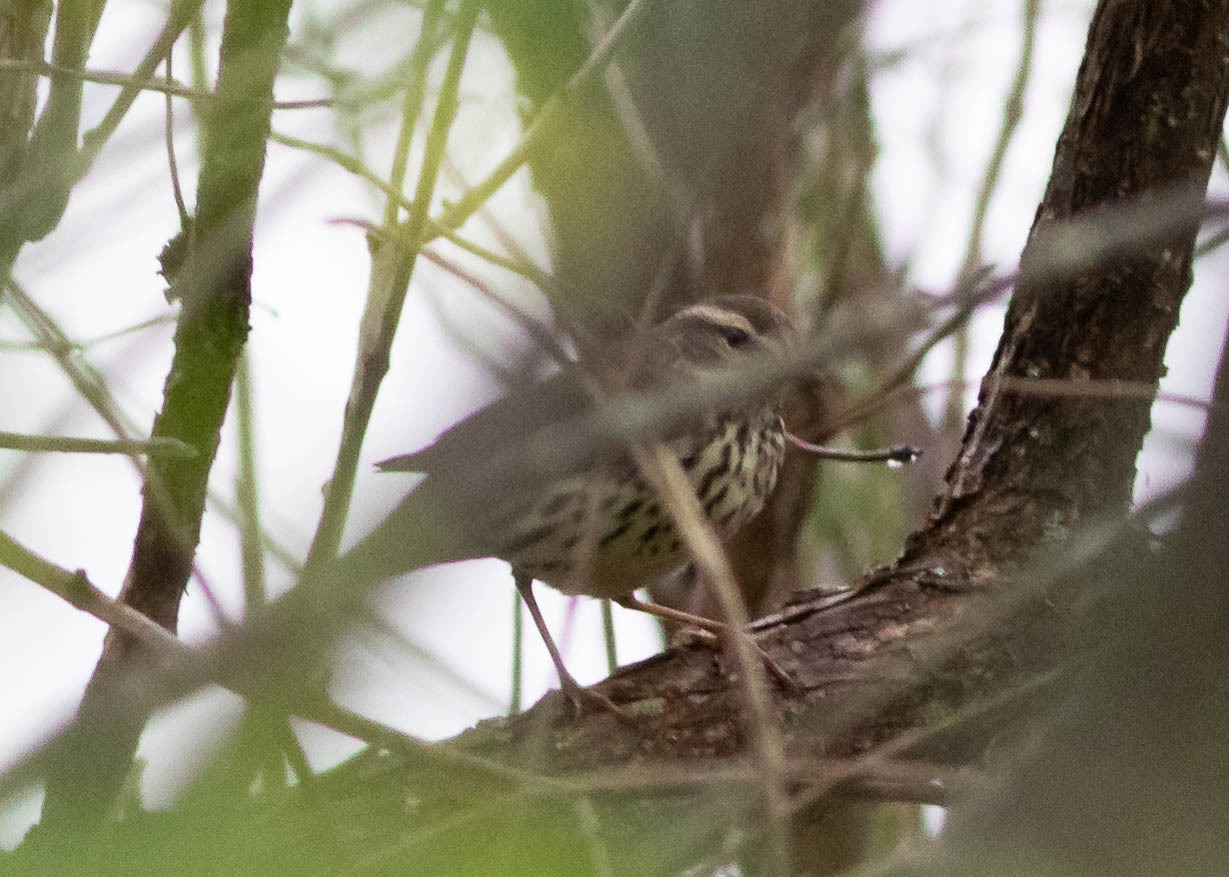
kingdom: Animalia
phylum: Chordata
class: Aves
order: Passeriformes
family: Parulidae
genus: Parkesia
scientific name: Parkesia noveboracensis
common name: Northern waterthrush
